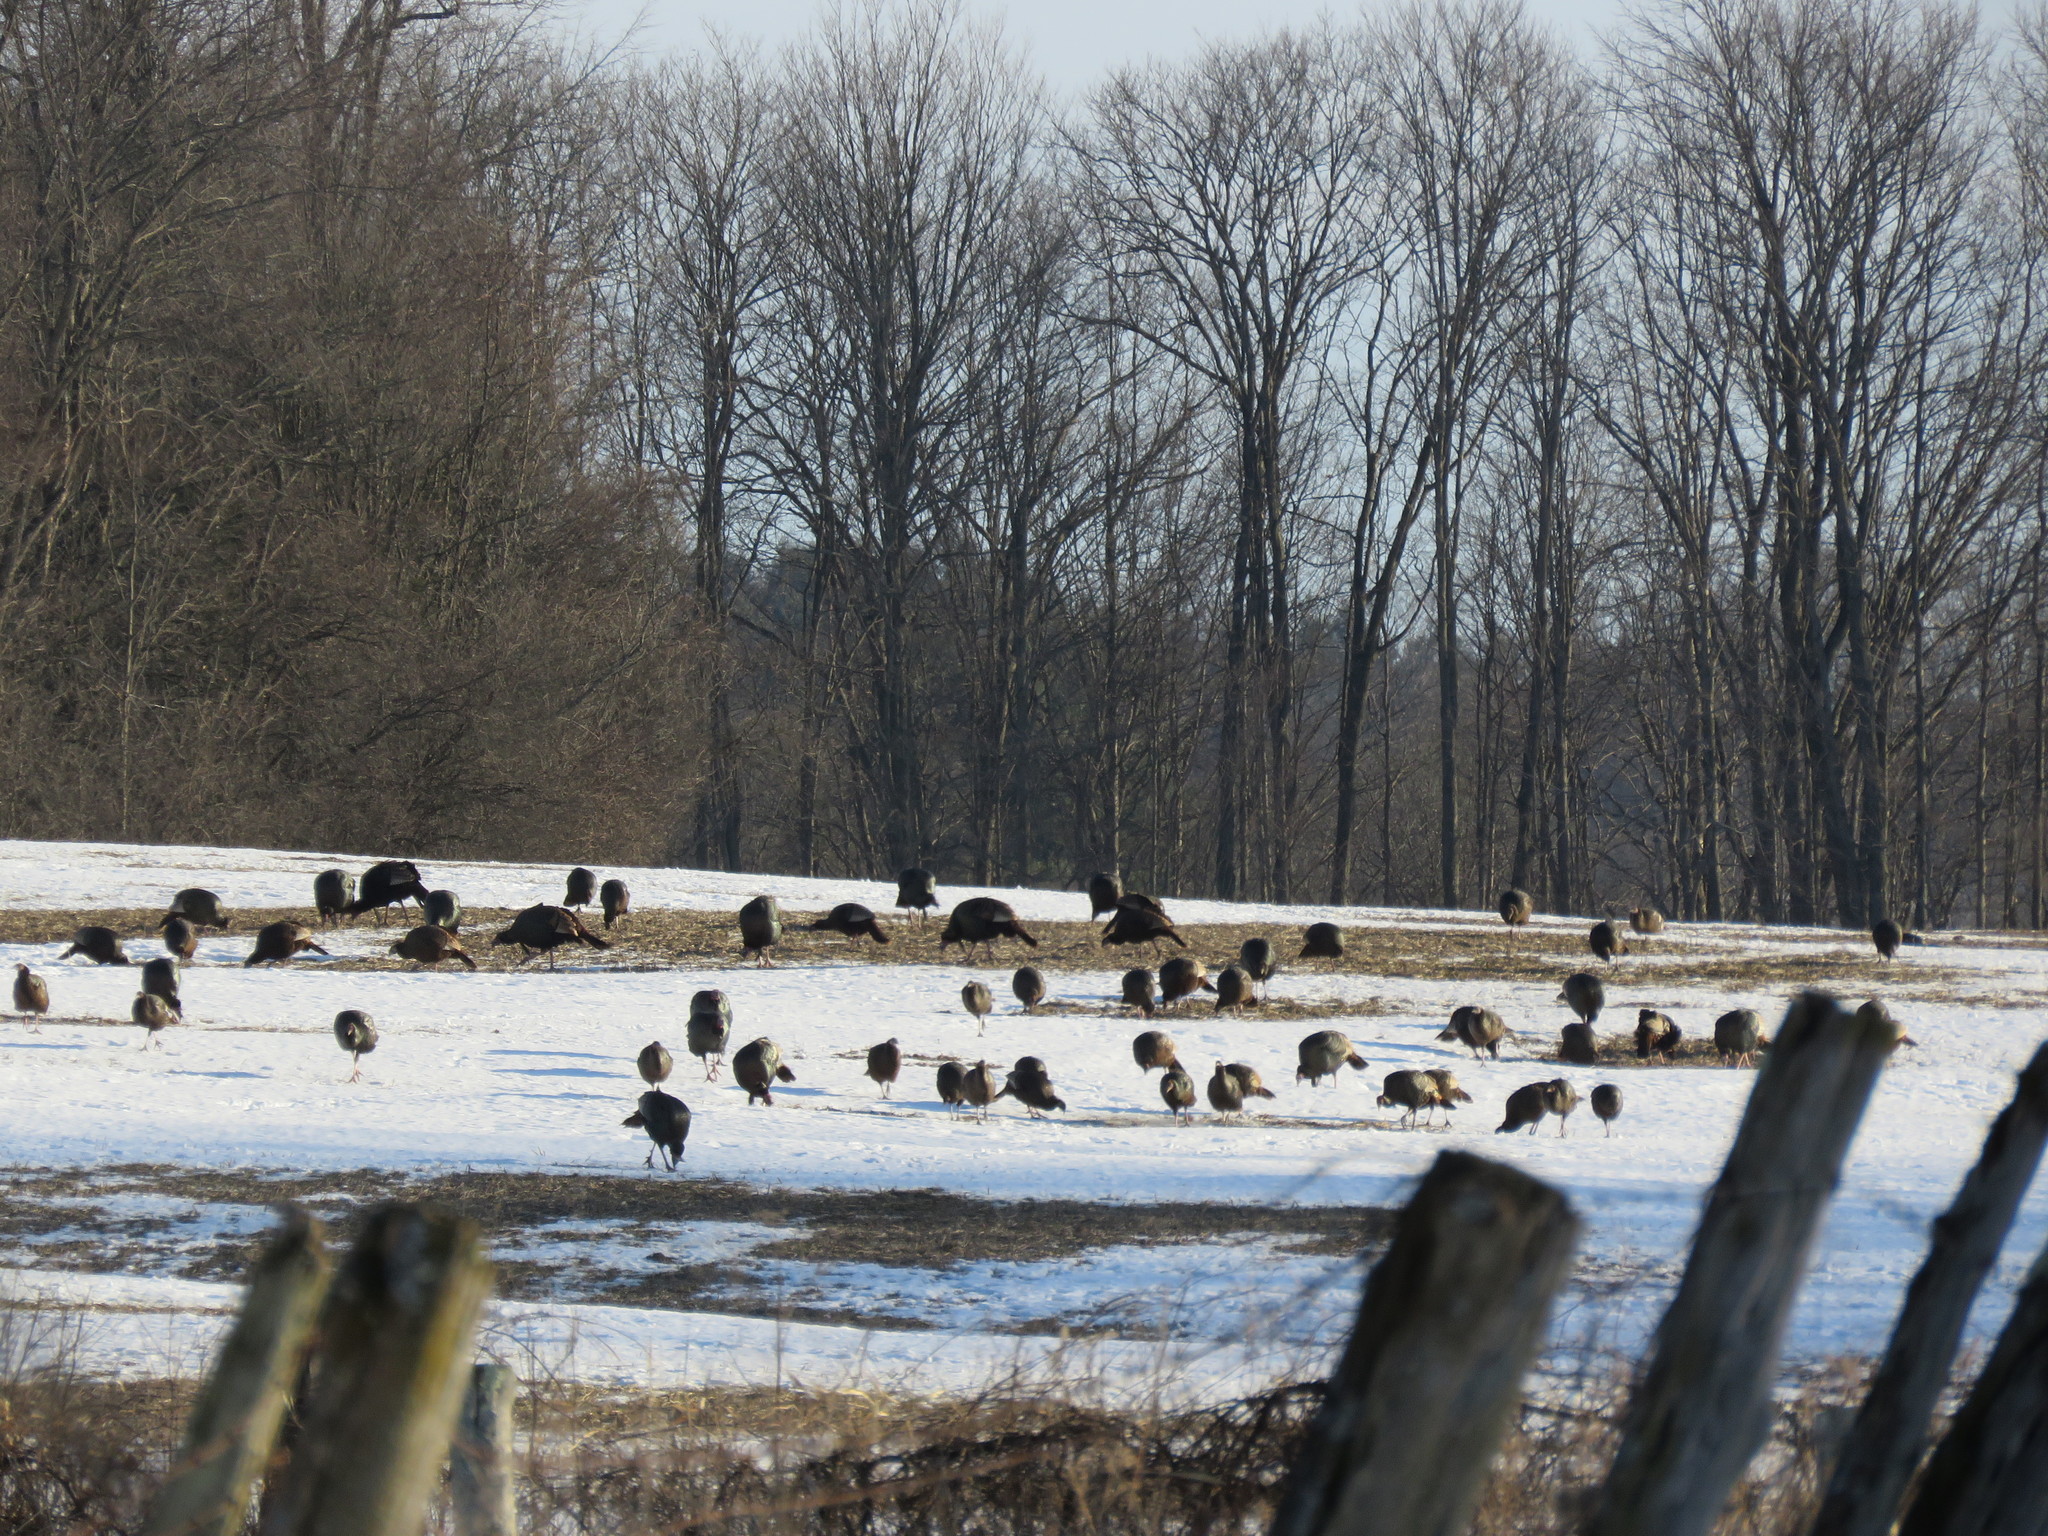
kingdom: Animalia
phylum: Chordata
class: Aves
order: Galliformes
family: Phasianidae
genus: Meleagris
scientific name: Meleagris gallopavo
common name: Wild turkey
